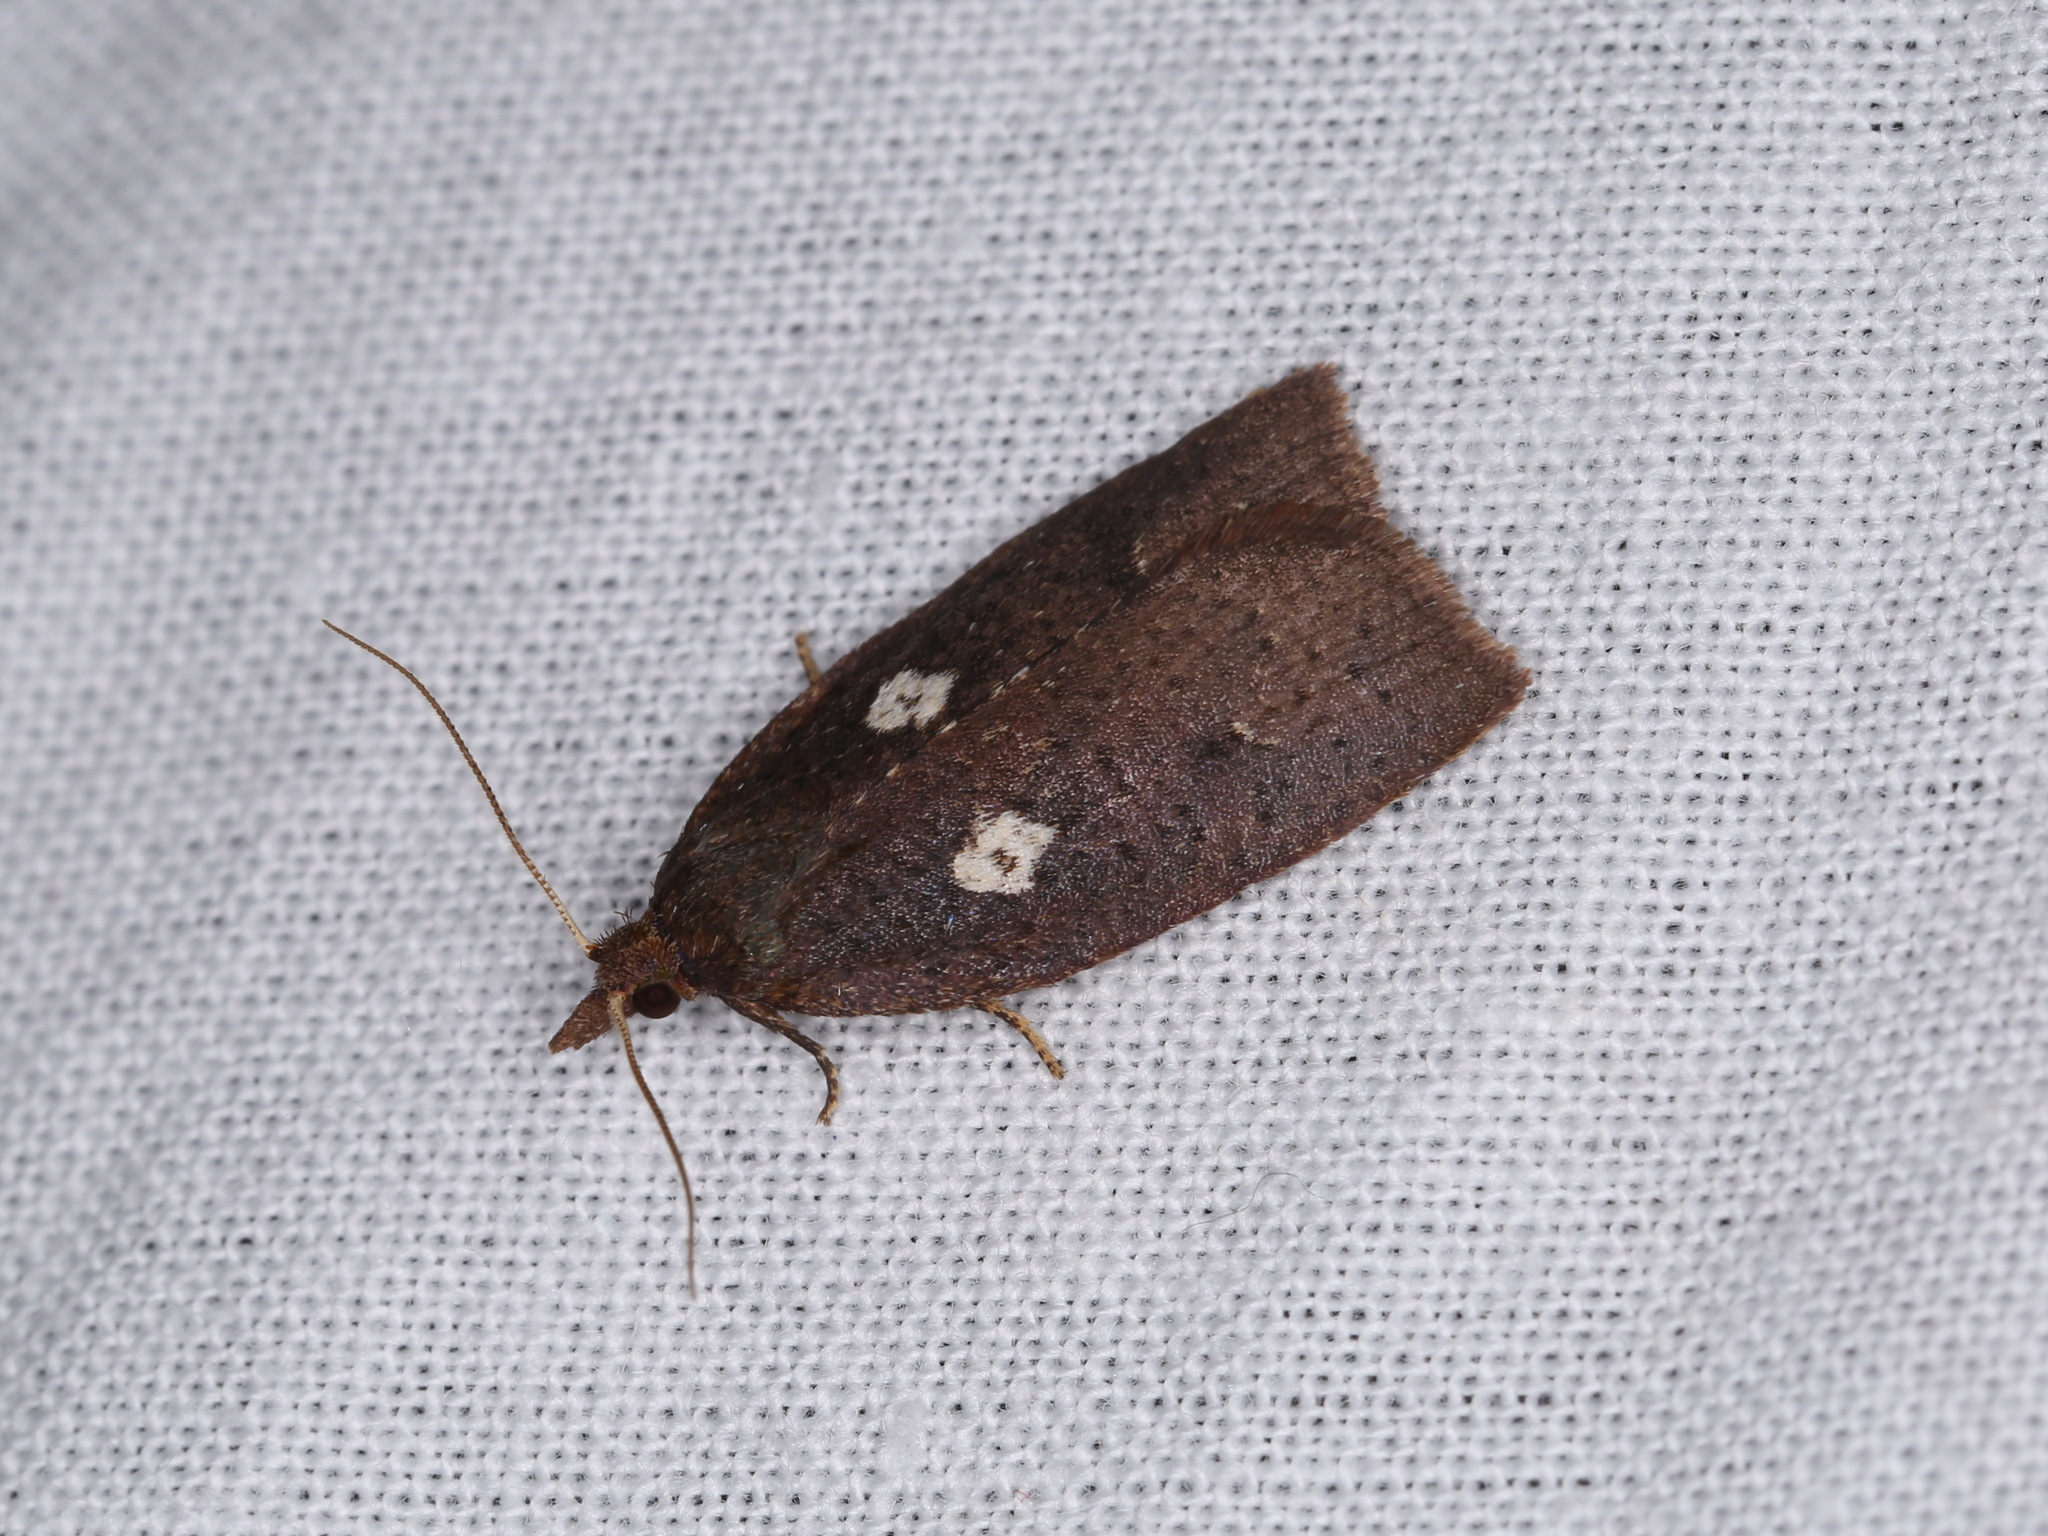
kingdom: Animalia
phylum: Arthropoda
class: Insecta
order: Lepidoptera
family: Tortricidae
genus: Planotortrix
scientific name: Planotortrix excessana
